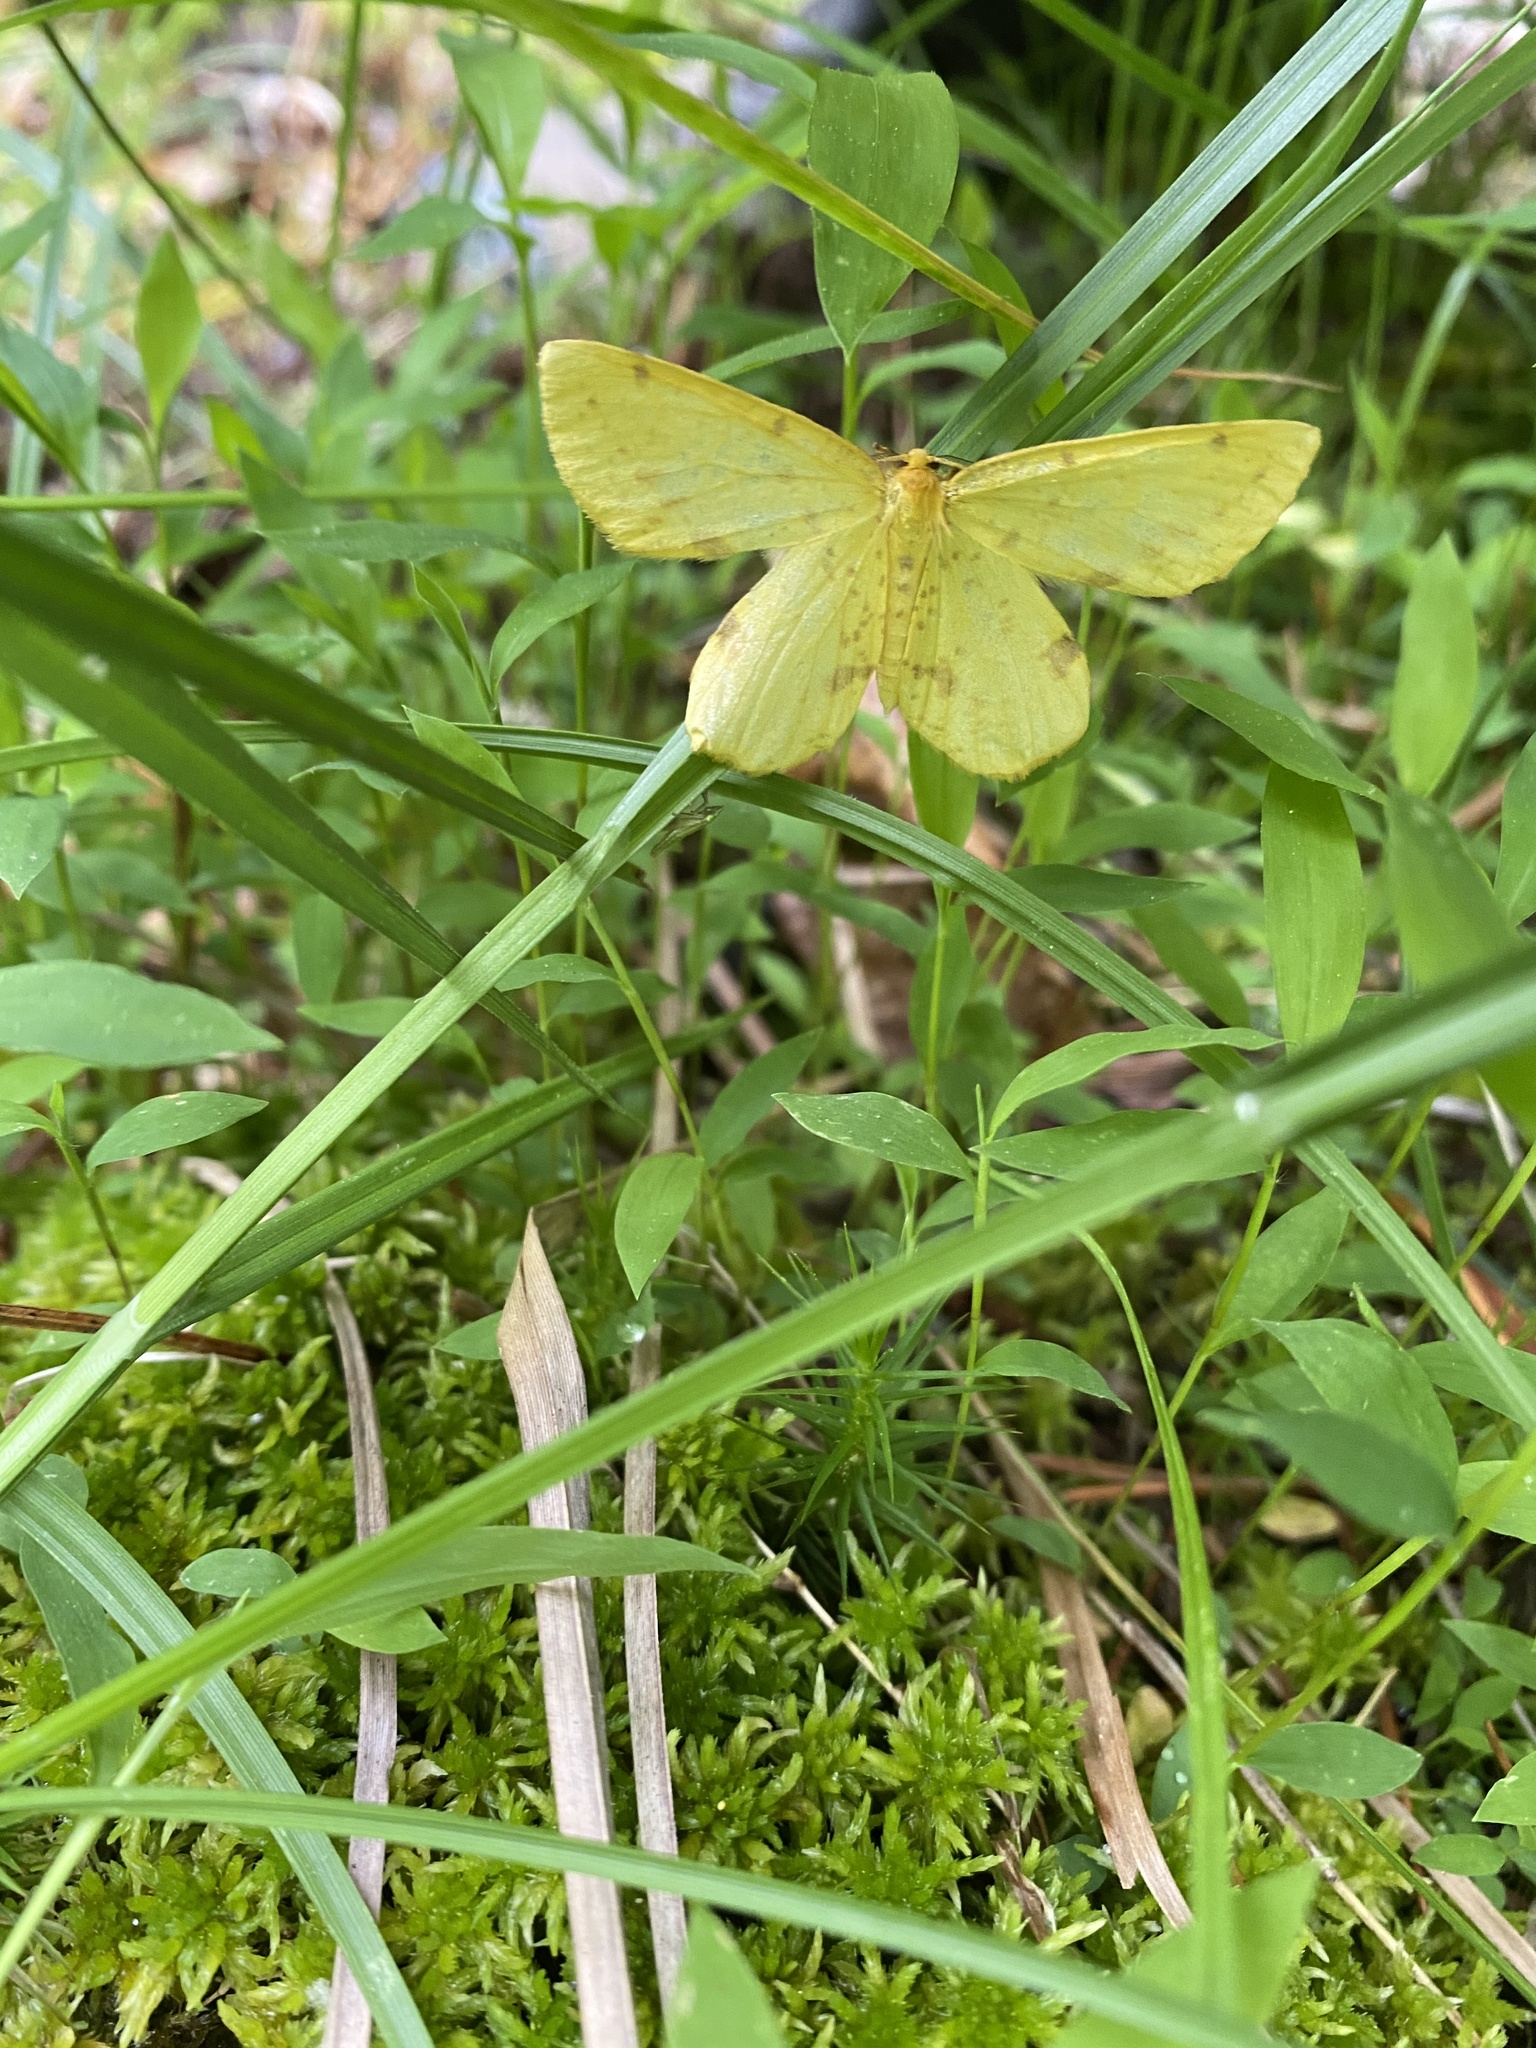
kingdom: Animalia
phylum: Arthropoda
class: Insecta
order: Lepidoptera
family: Geometridae
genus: Xanthotype
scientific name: Xanthotype
